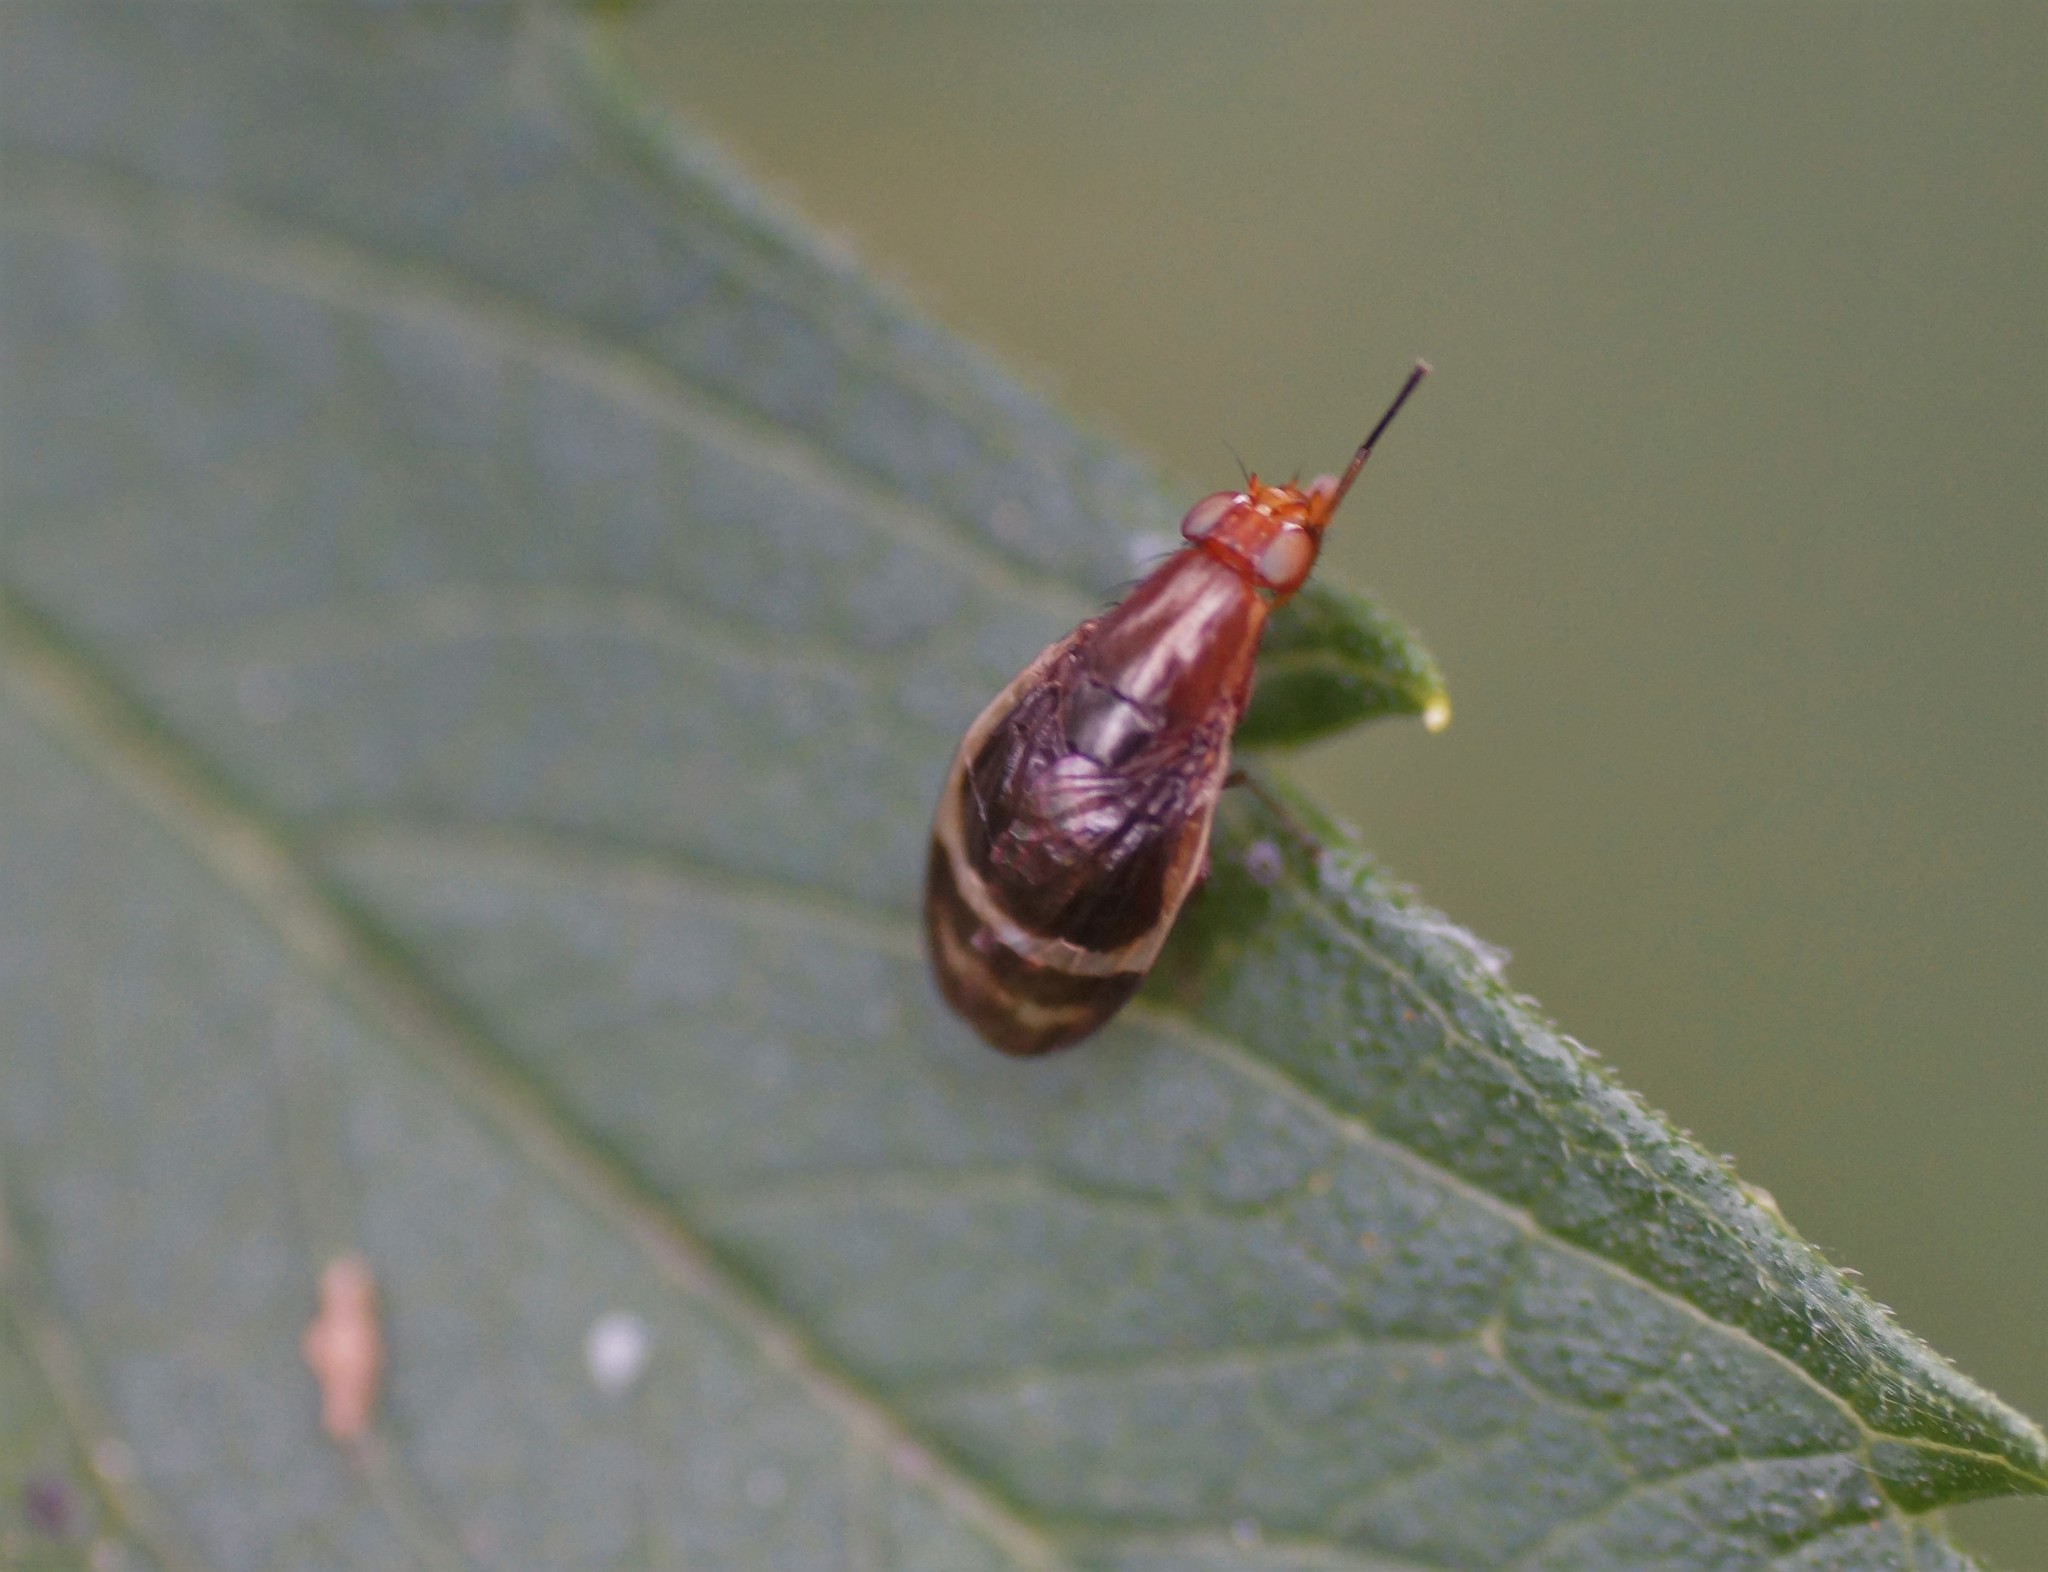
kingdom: Animalia
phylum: Arthropoda
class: Insecta
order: Diptera
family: Lauxaniidae
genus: Depressa
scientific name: Depressa striatipennis
